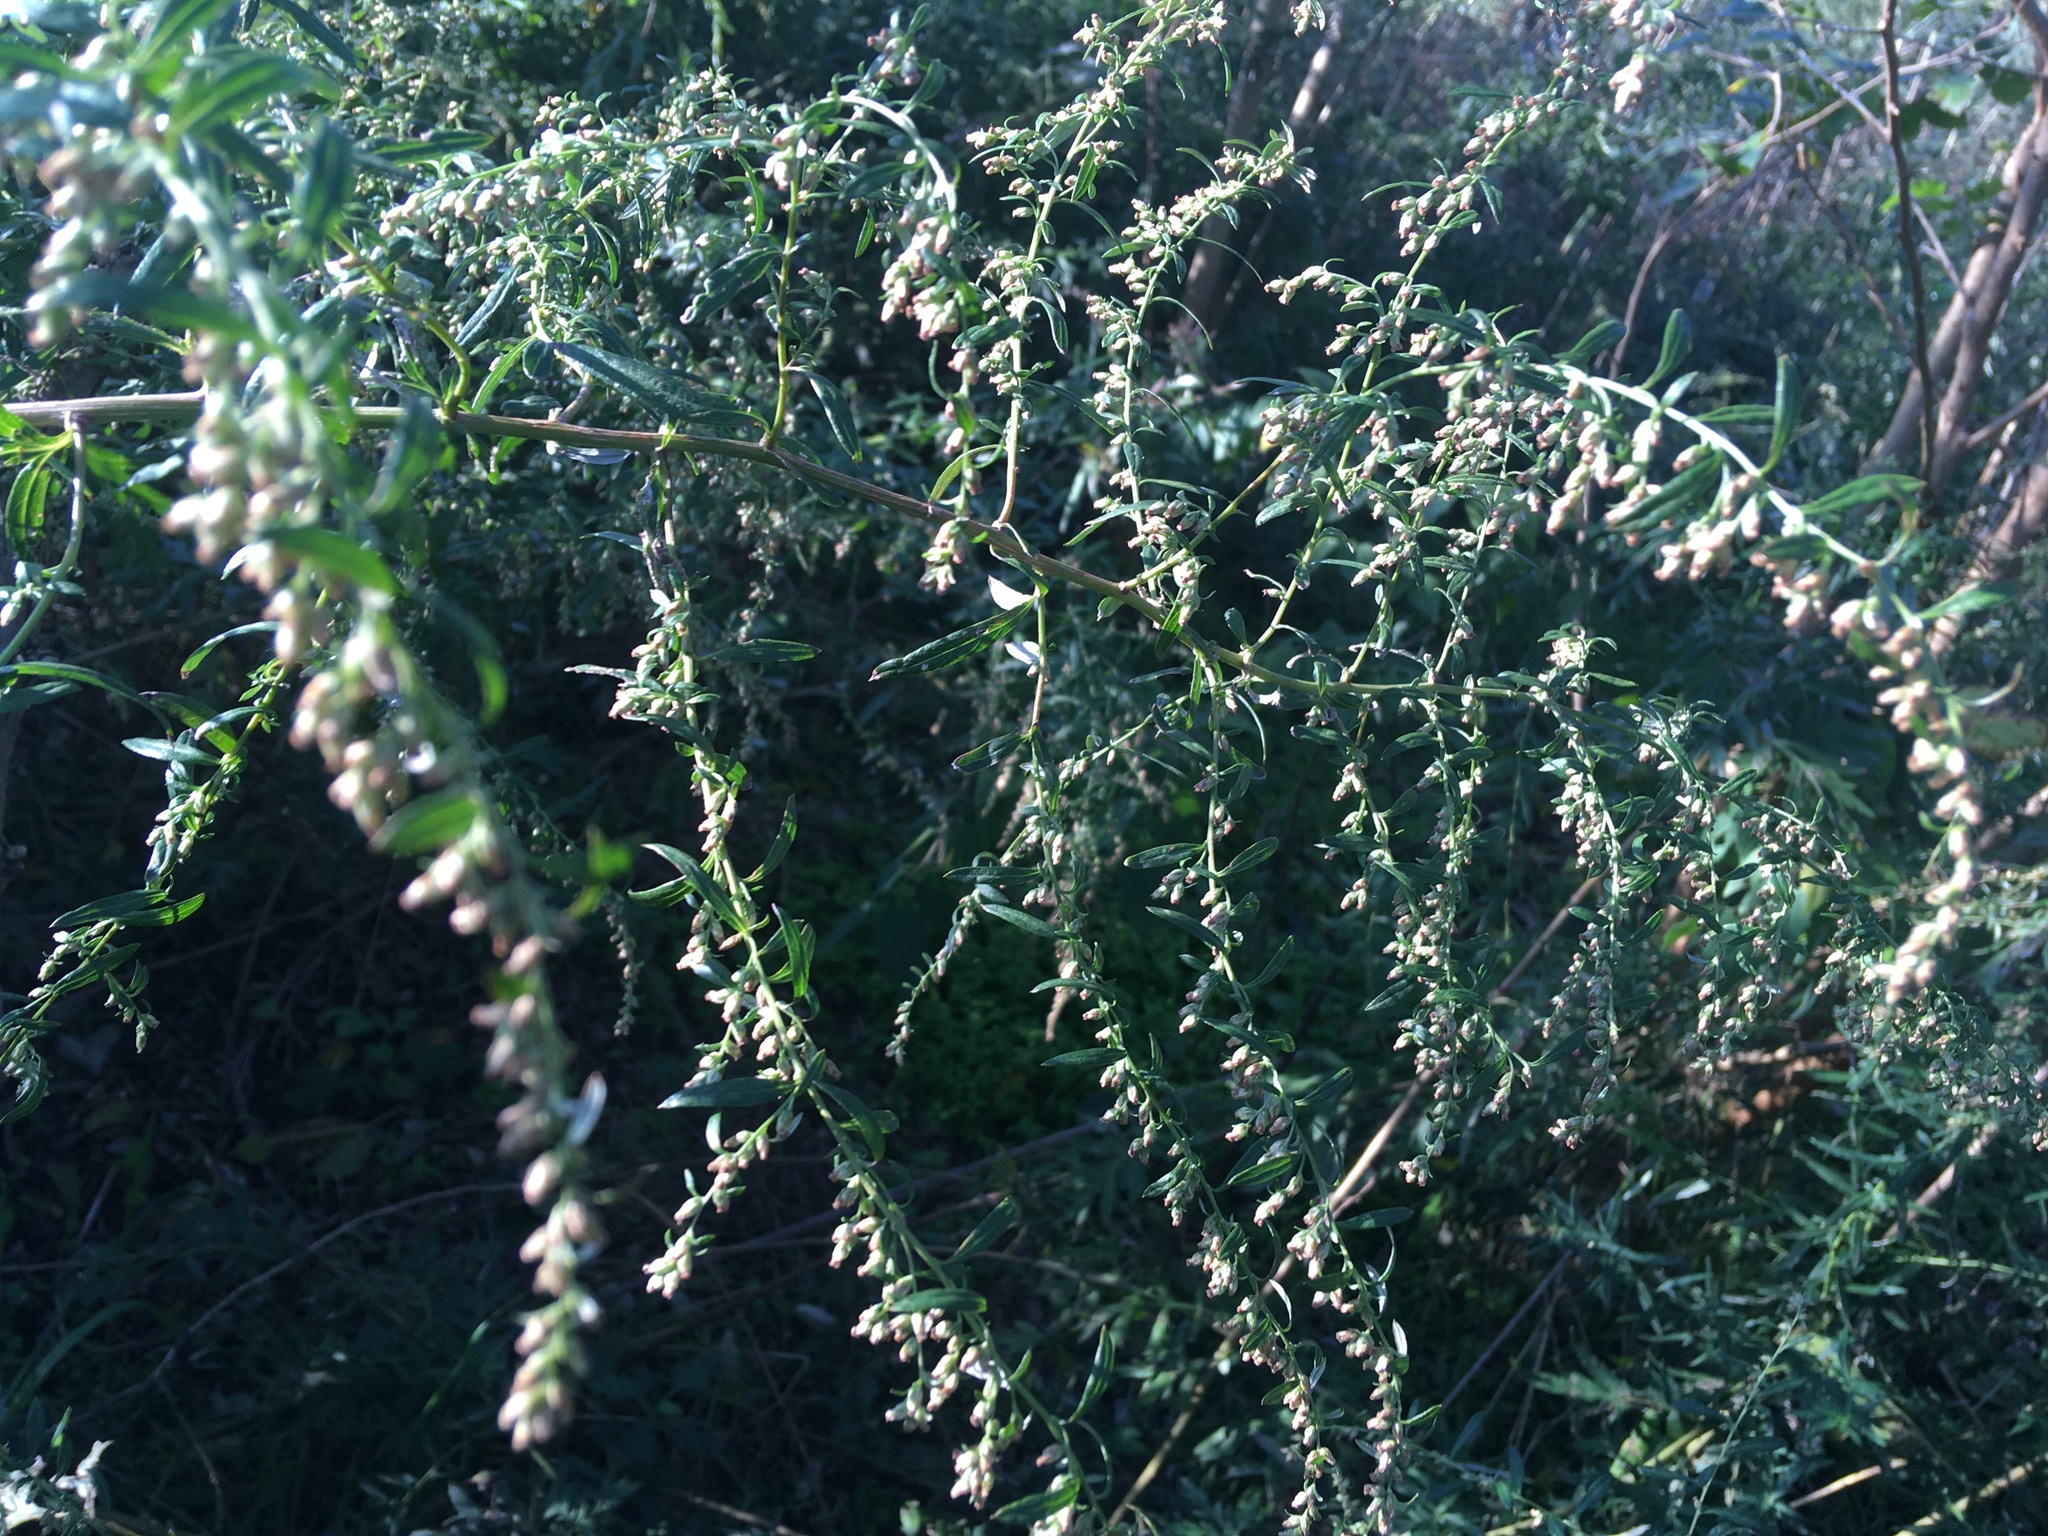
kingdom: Plantae
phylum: Tracheophyta
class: Magnoliopsida
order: Asterales
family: Asteraceae
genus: Artemisia
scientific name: Artemisia vulgaris
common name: Mugwort
